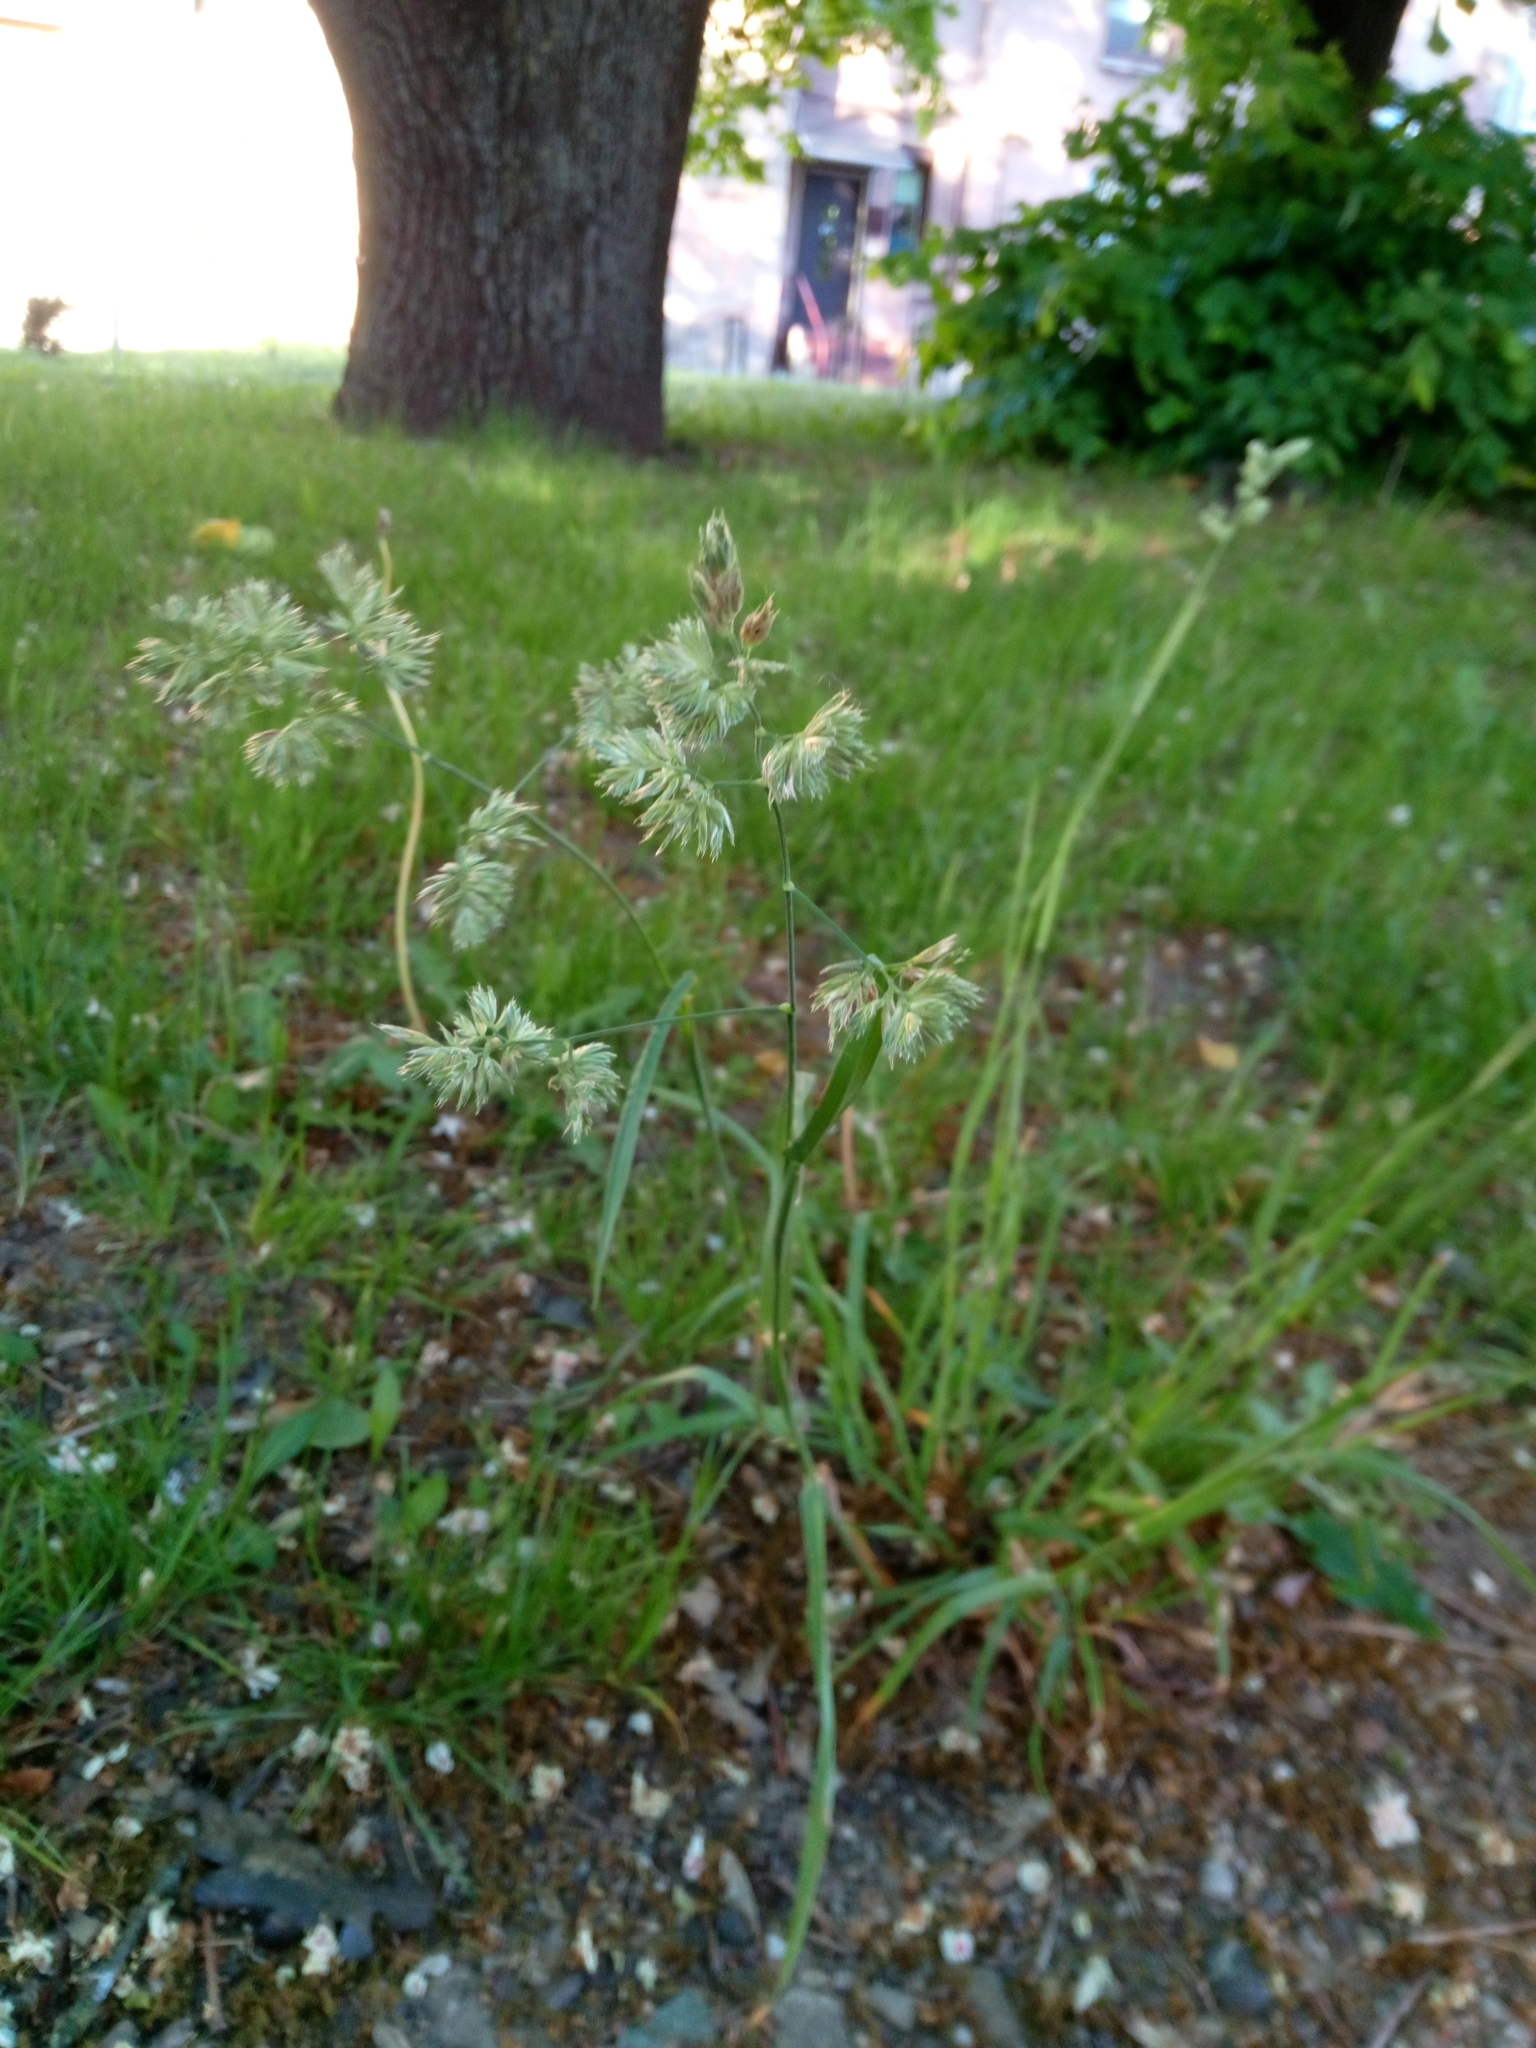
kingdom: Plantae
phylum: Tracheophyta
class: Liliopsida
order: Poales
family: Poaceae
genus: Dactylis
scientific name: Dactylis glomerata
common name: Orchardgrass
